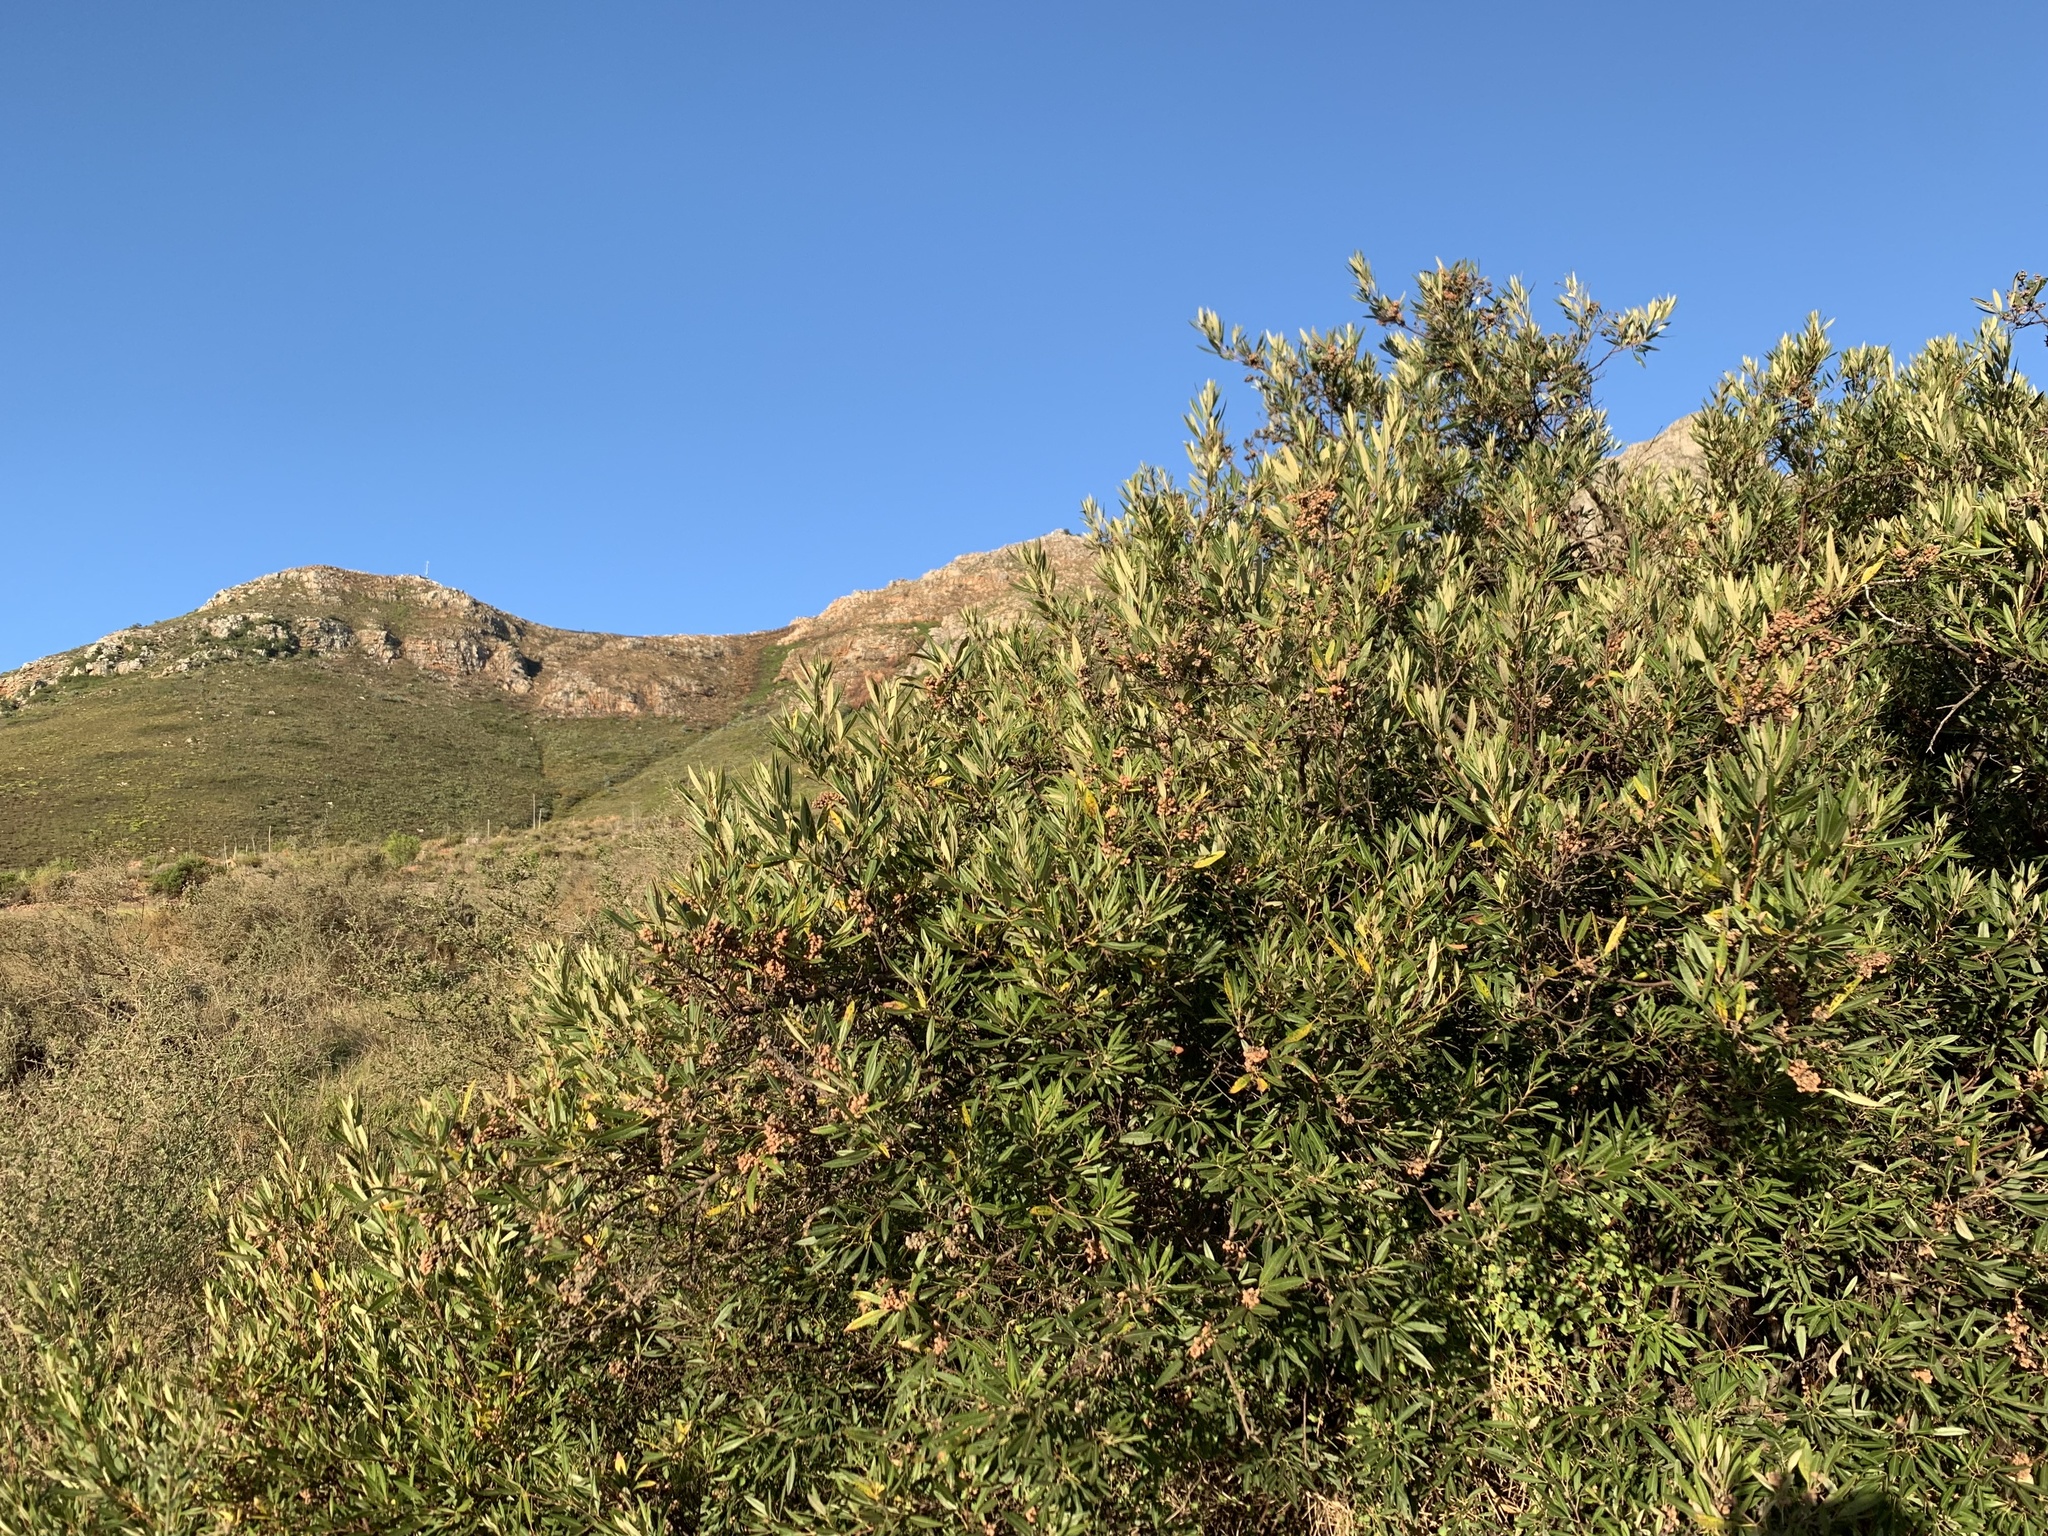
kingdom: Plantae
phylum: Tracheophyta
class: Magnoliopsida
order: Sapindales
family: Anacardiaceae
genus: Searsia
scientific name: Searsia angustifolia
